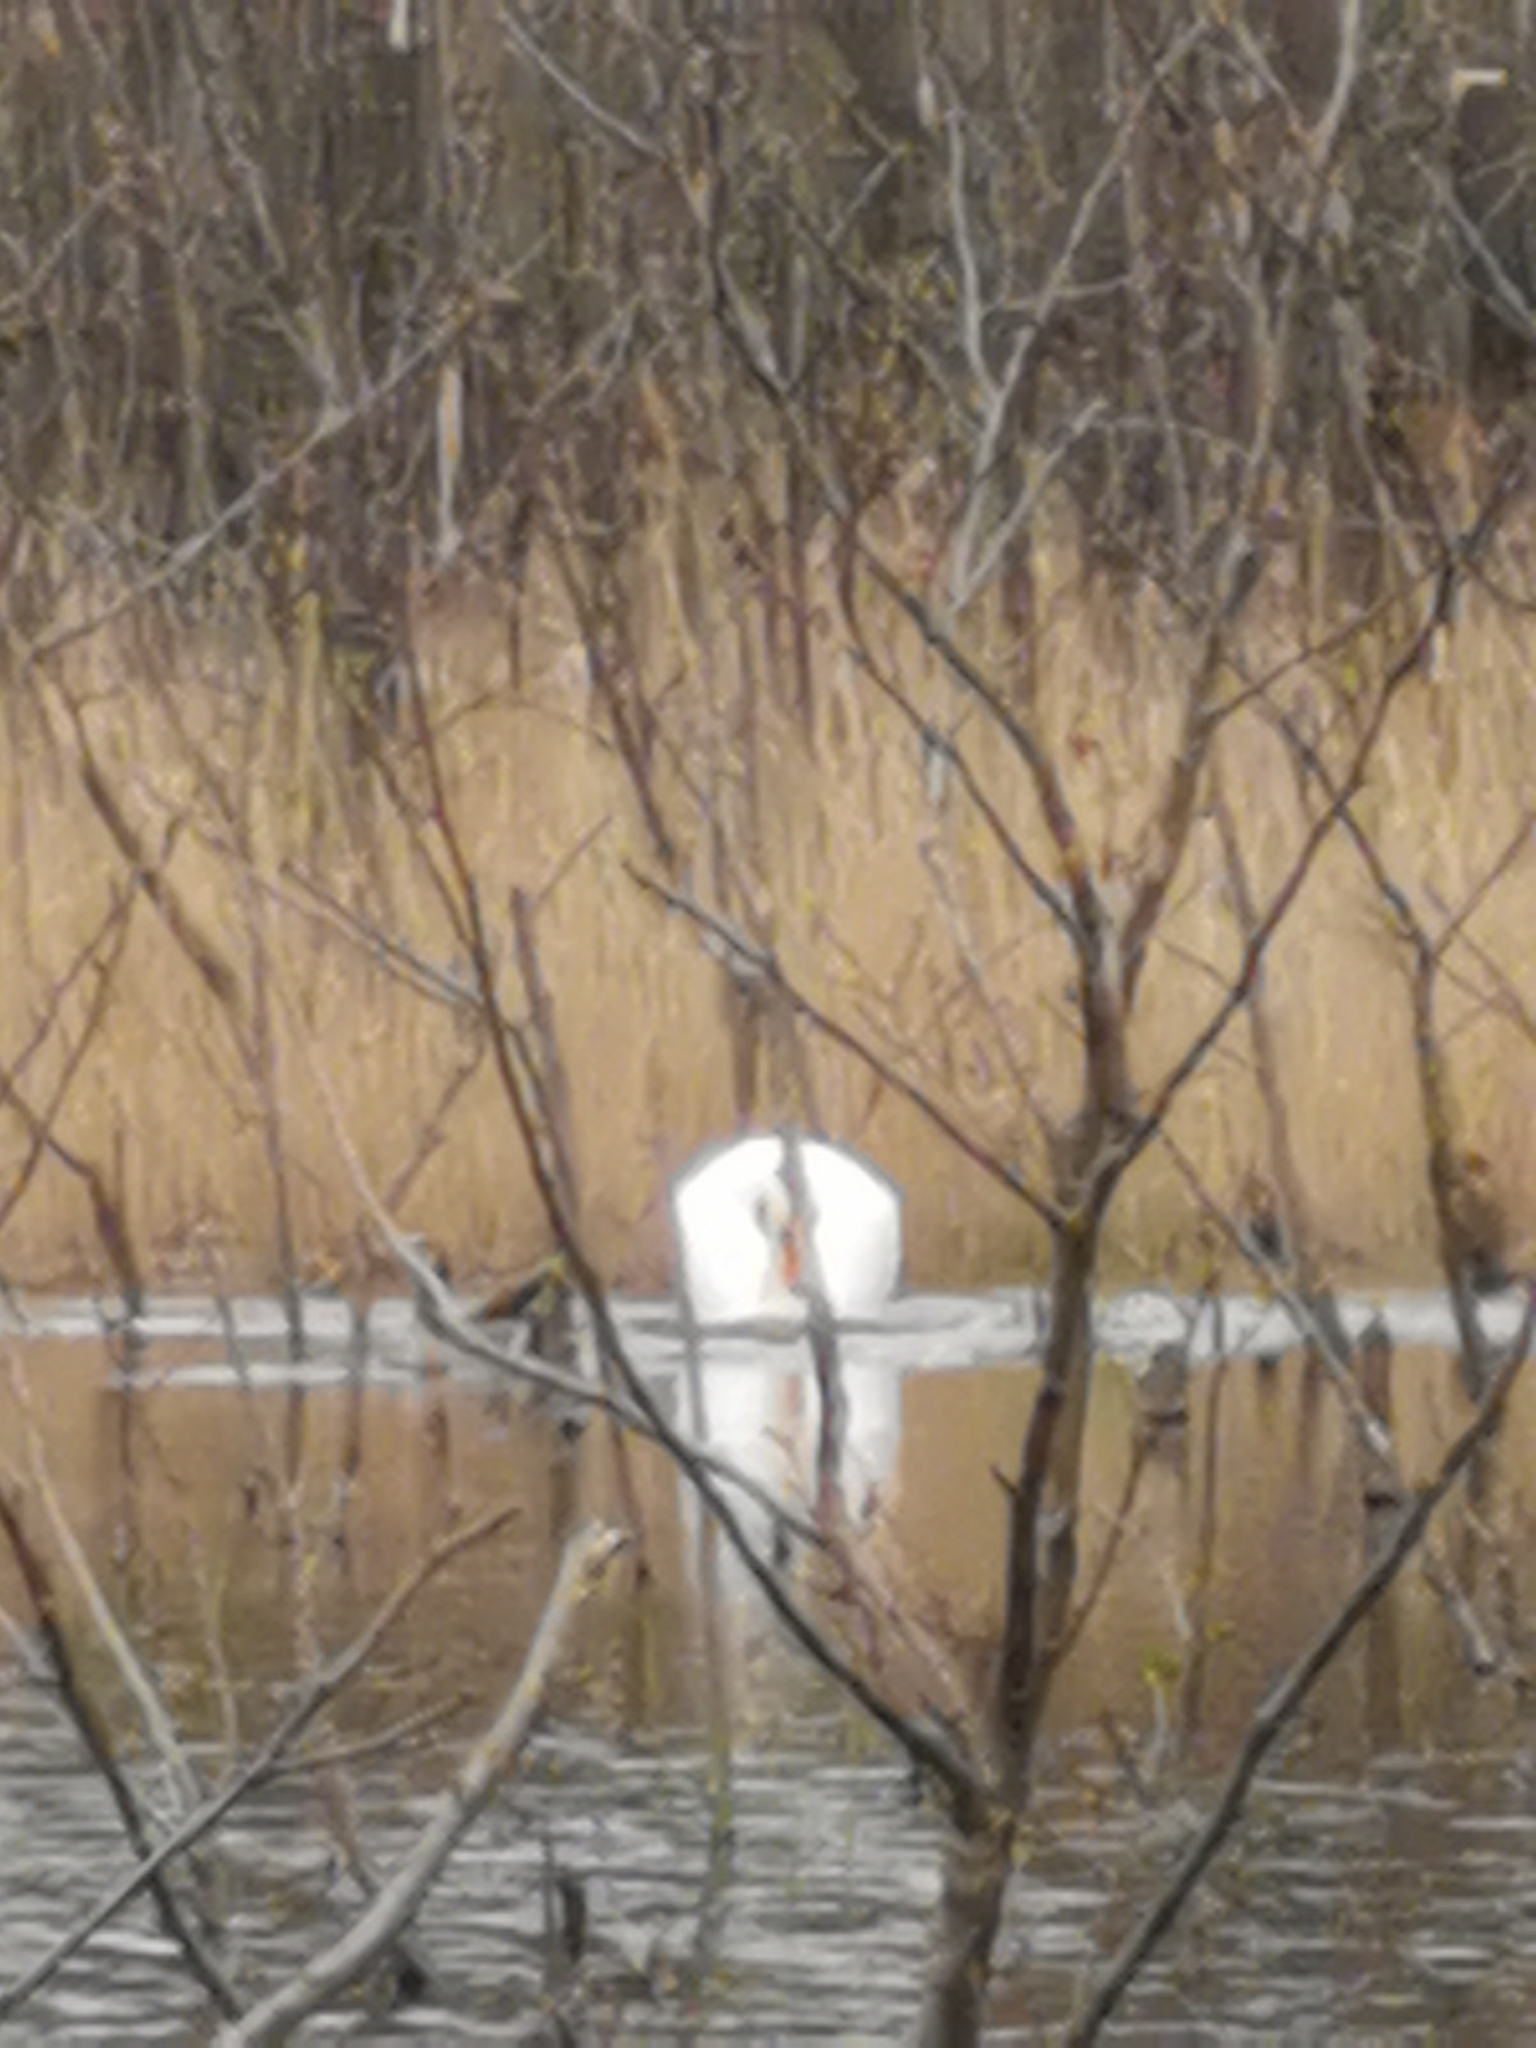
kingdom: Animalia
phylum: Chordata
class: Aves
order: Anseriformes
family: Anatidae
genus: Cygnus
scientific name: Cygnus olor
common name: Mute swan
